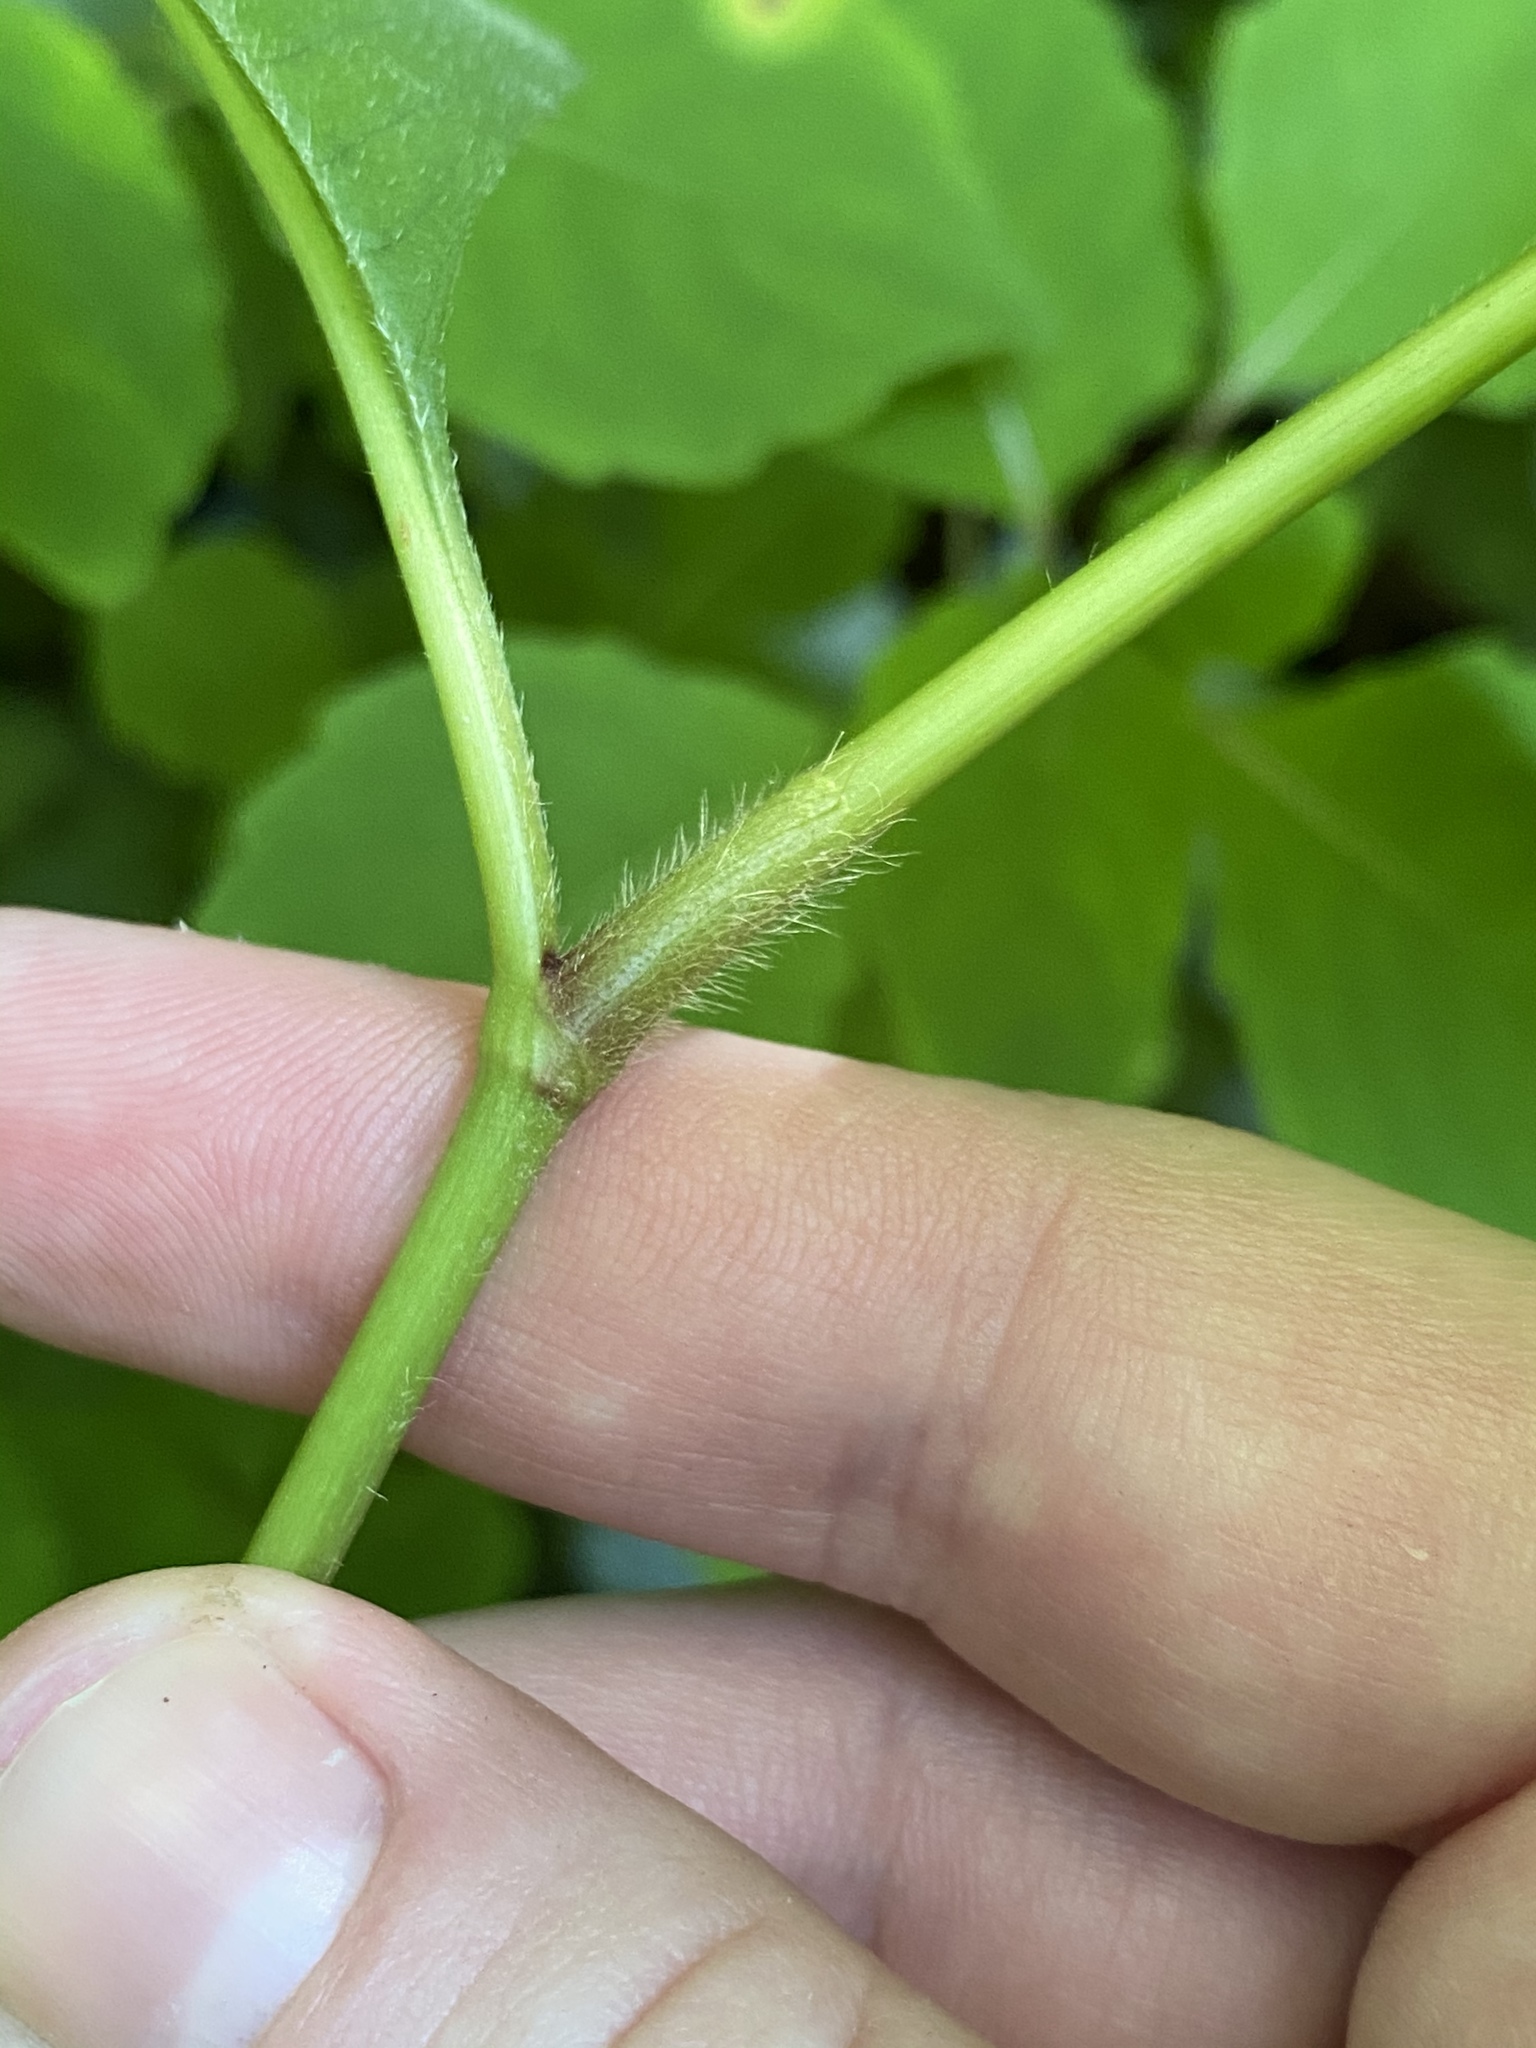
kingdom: Plantae
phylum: Tracheophyta
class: Magnoliopsida
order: Caryophyllales
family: Polygonaceae
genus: Persicaria
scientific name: Persicaria virginiana
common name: Jumpseed
